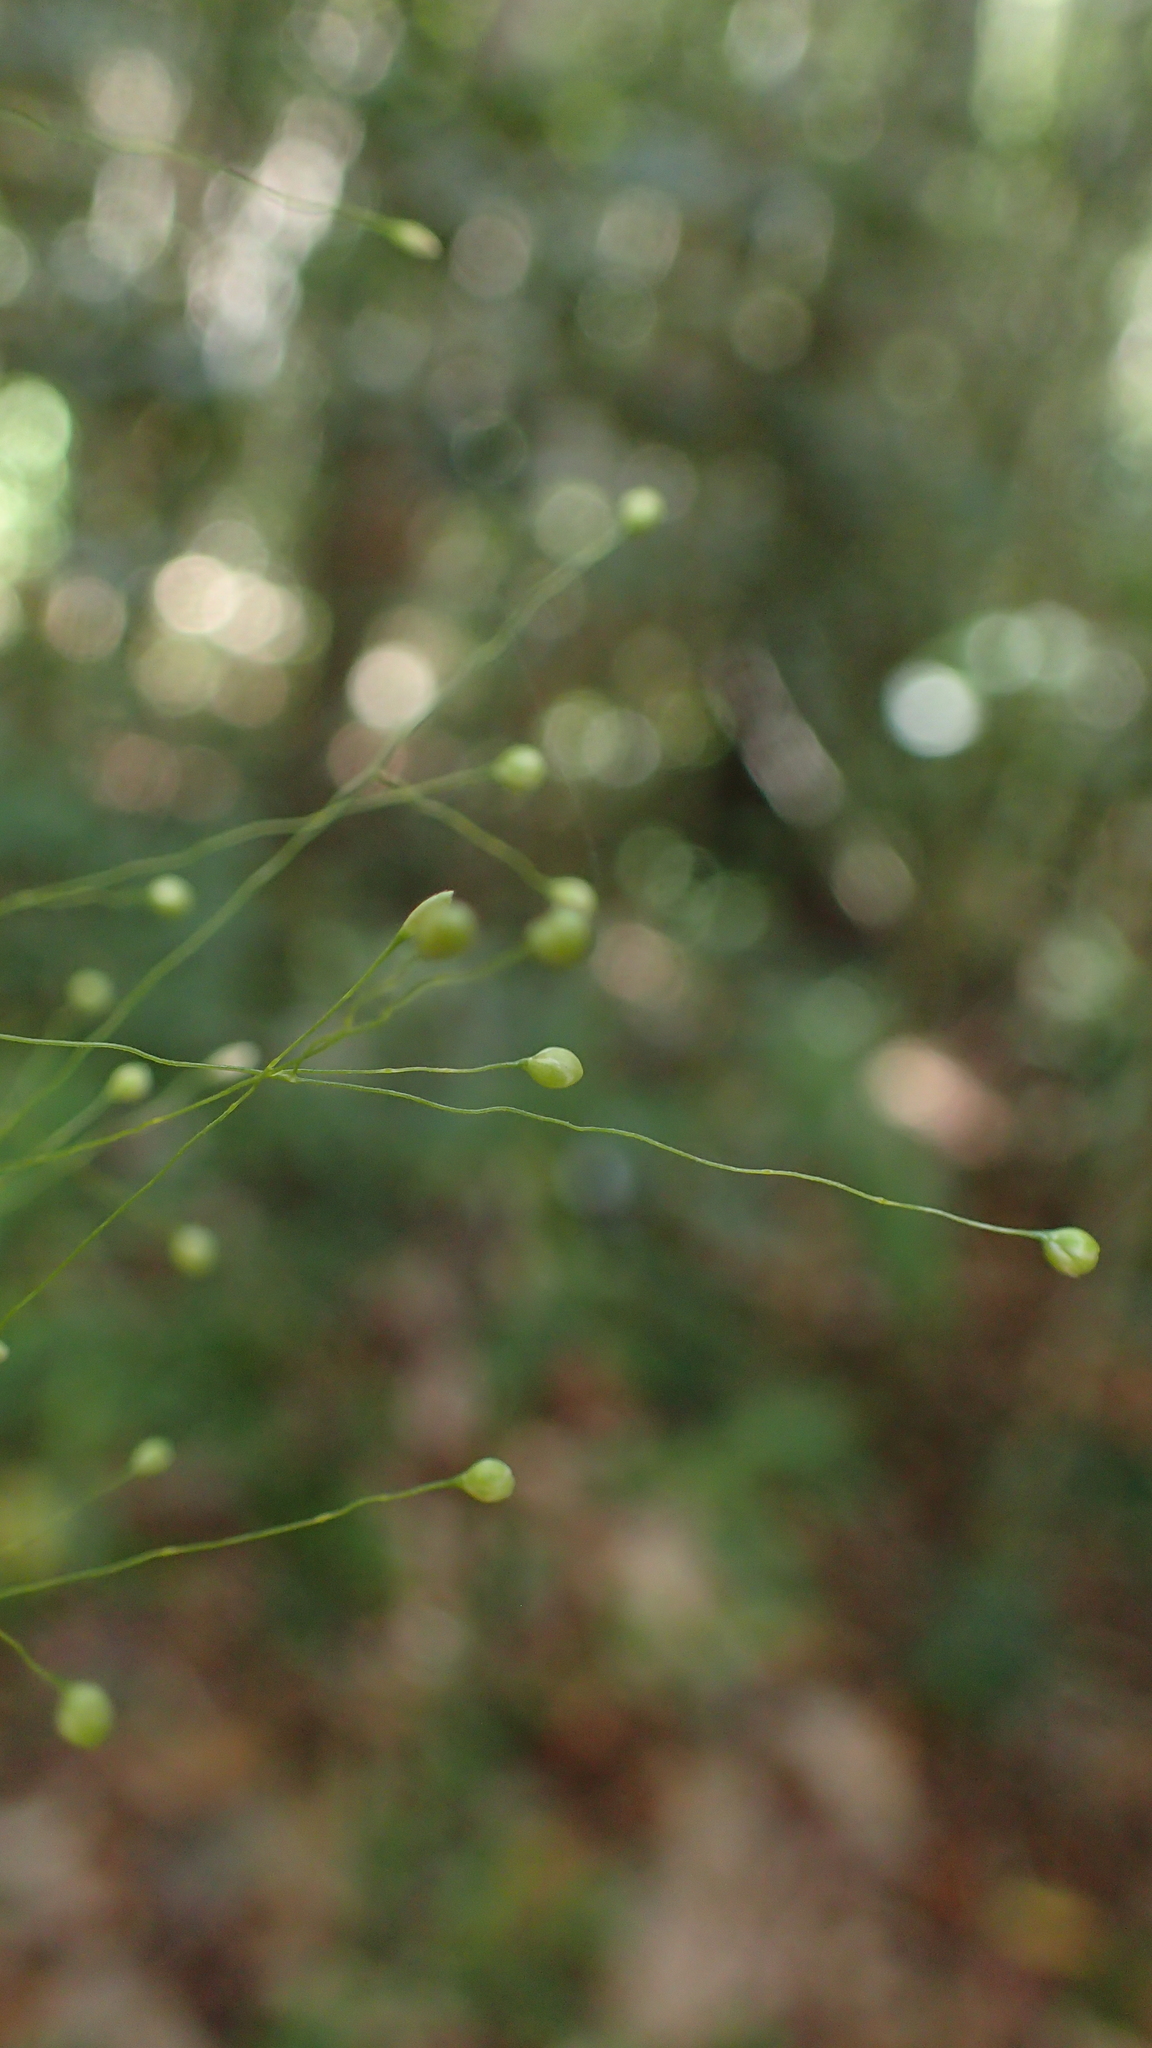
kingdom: Plantae
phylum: Tracheophyta
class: Liliopsida
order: Poales
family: Poaceae
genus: Isachne
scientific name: Isachne mauritiana
